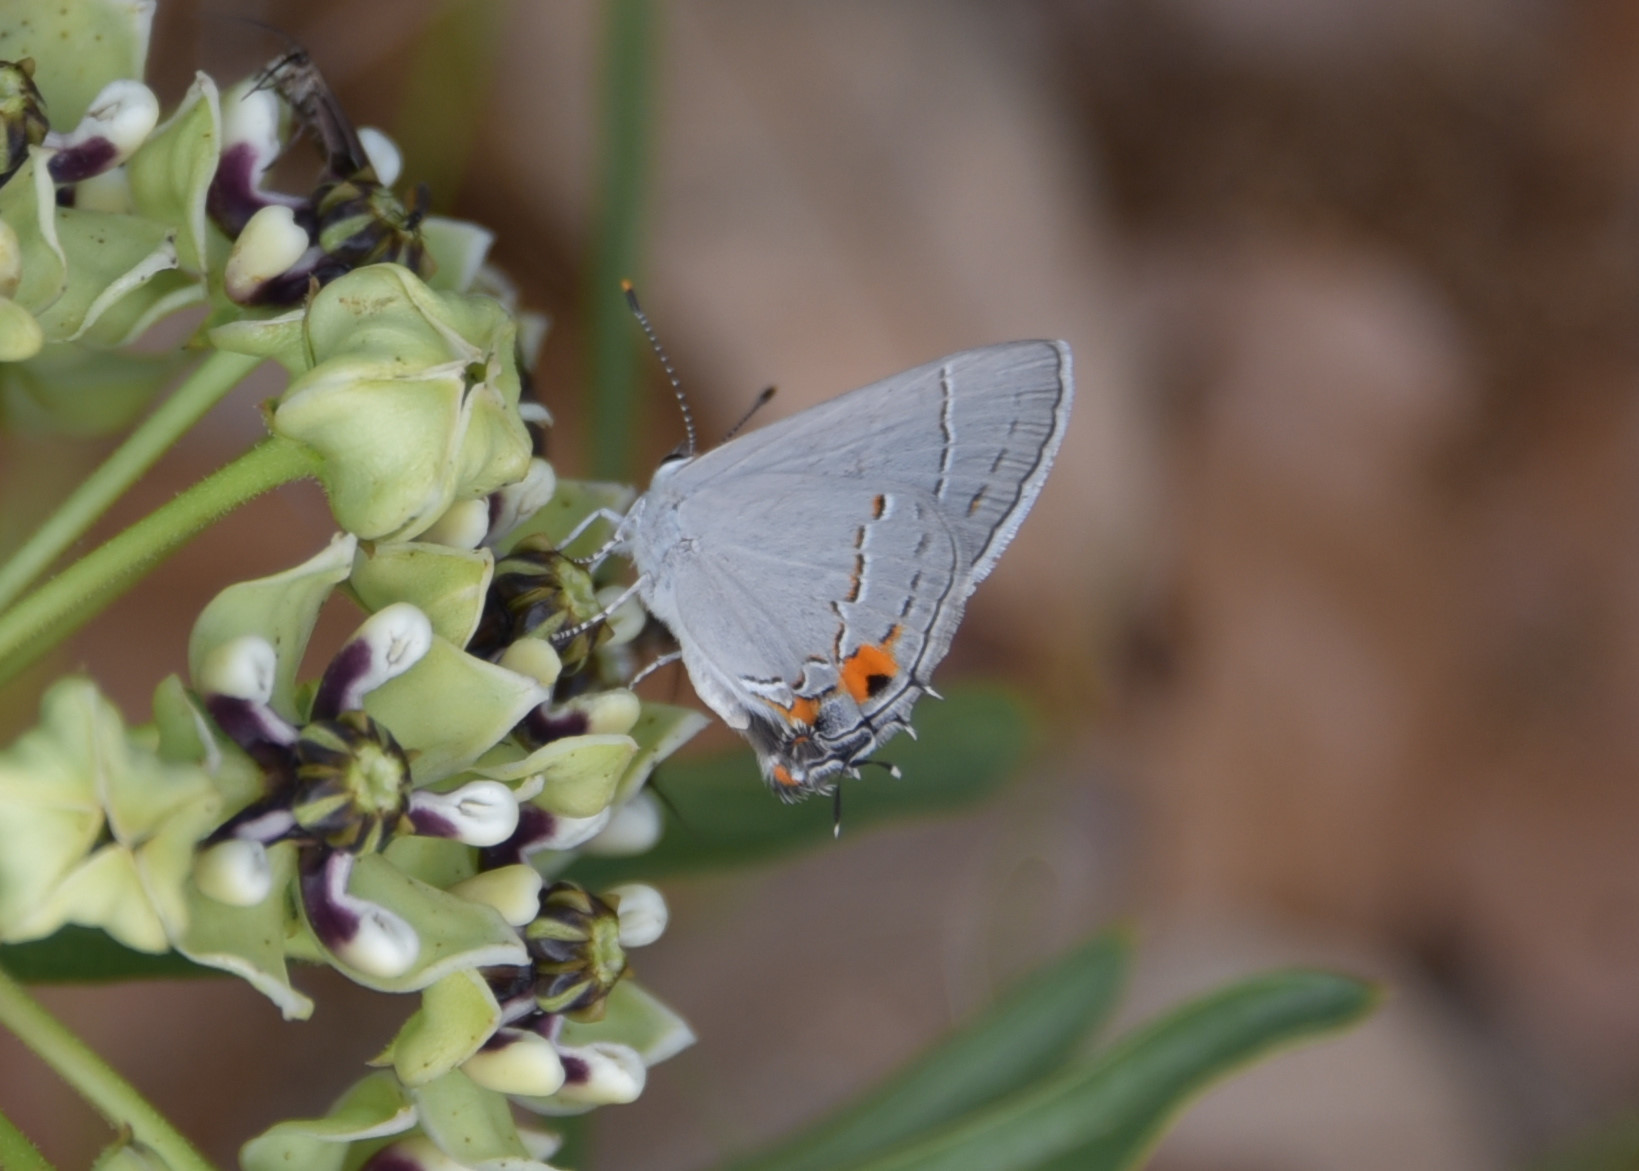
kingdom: Animalia
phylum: Arthropoda
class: Insecta
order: Lepidoptera
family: Lycaenidae
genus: Strymon
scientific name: Strymon melinus
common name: Gray hairstreak
